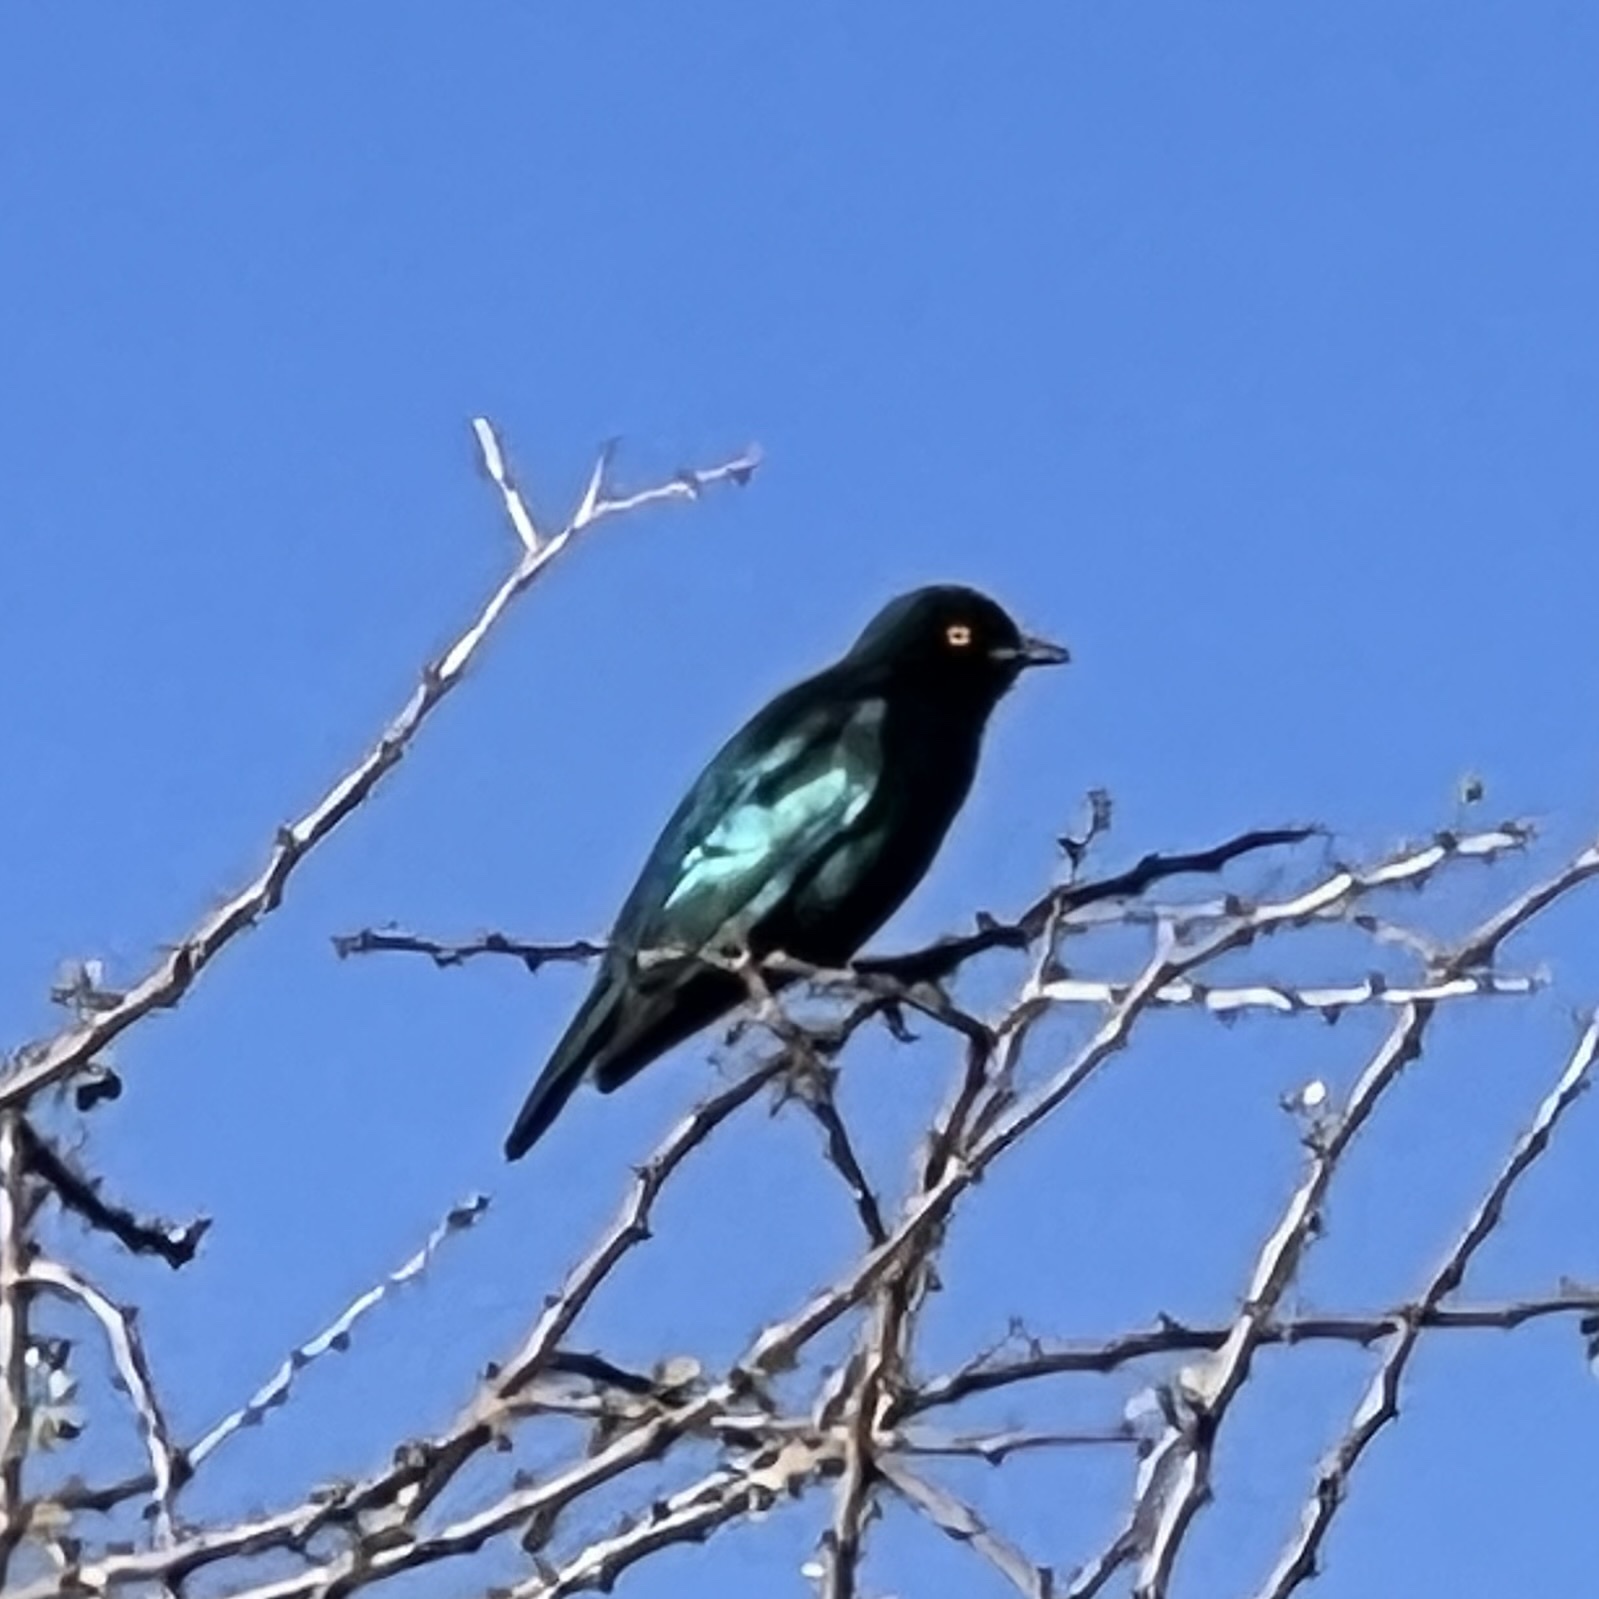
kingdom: Animalia
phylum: Chordata
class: Aves
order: Passeriformes
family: Sturnidae
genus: Lamprotornis
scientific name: Lamprotornis nitens
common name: Cape starling
